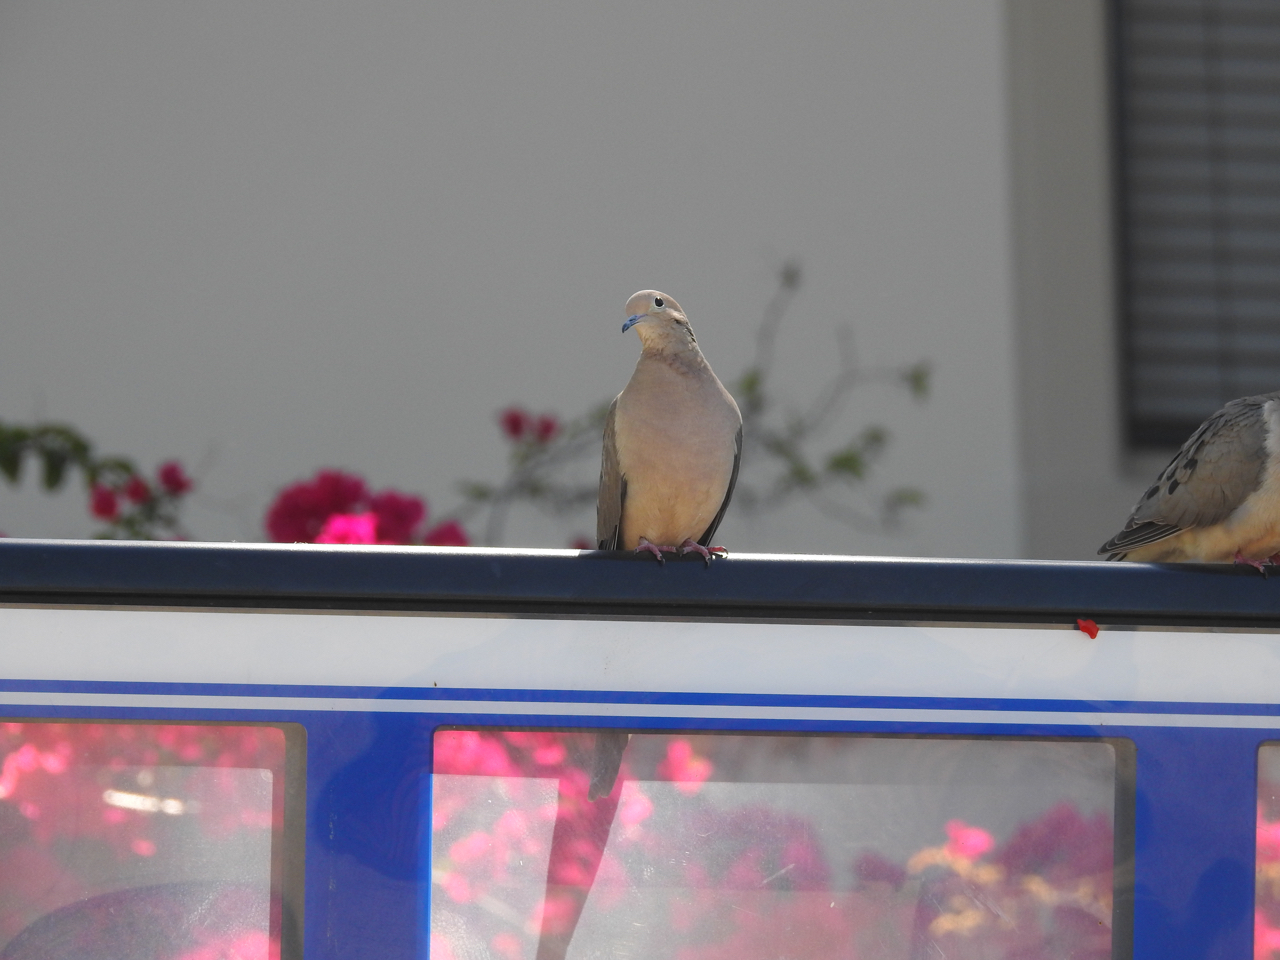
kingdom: Animalia
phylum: Chordata
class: Aves
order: Columbiformes
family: Columbidae
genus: Zenaida
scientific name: Zenaida macroura
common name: Mourning dove
